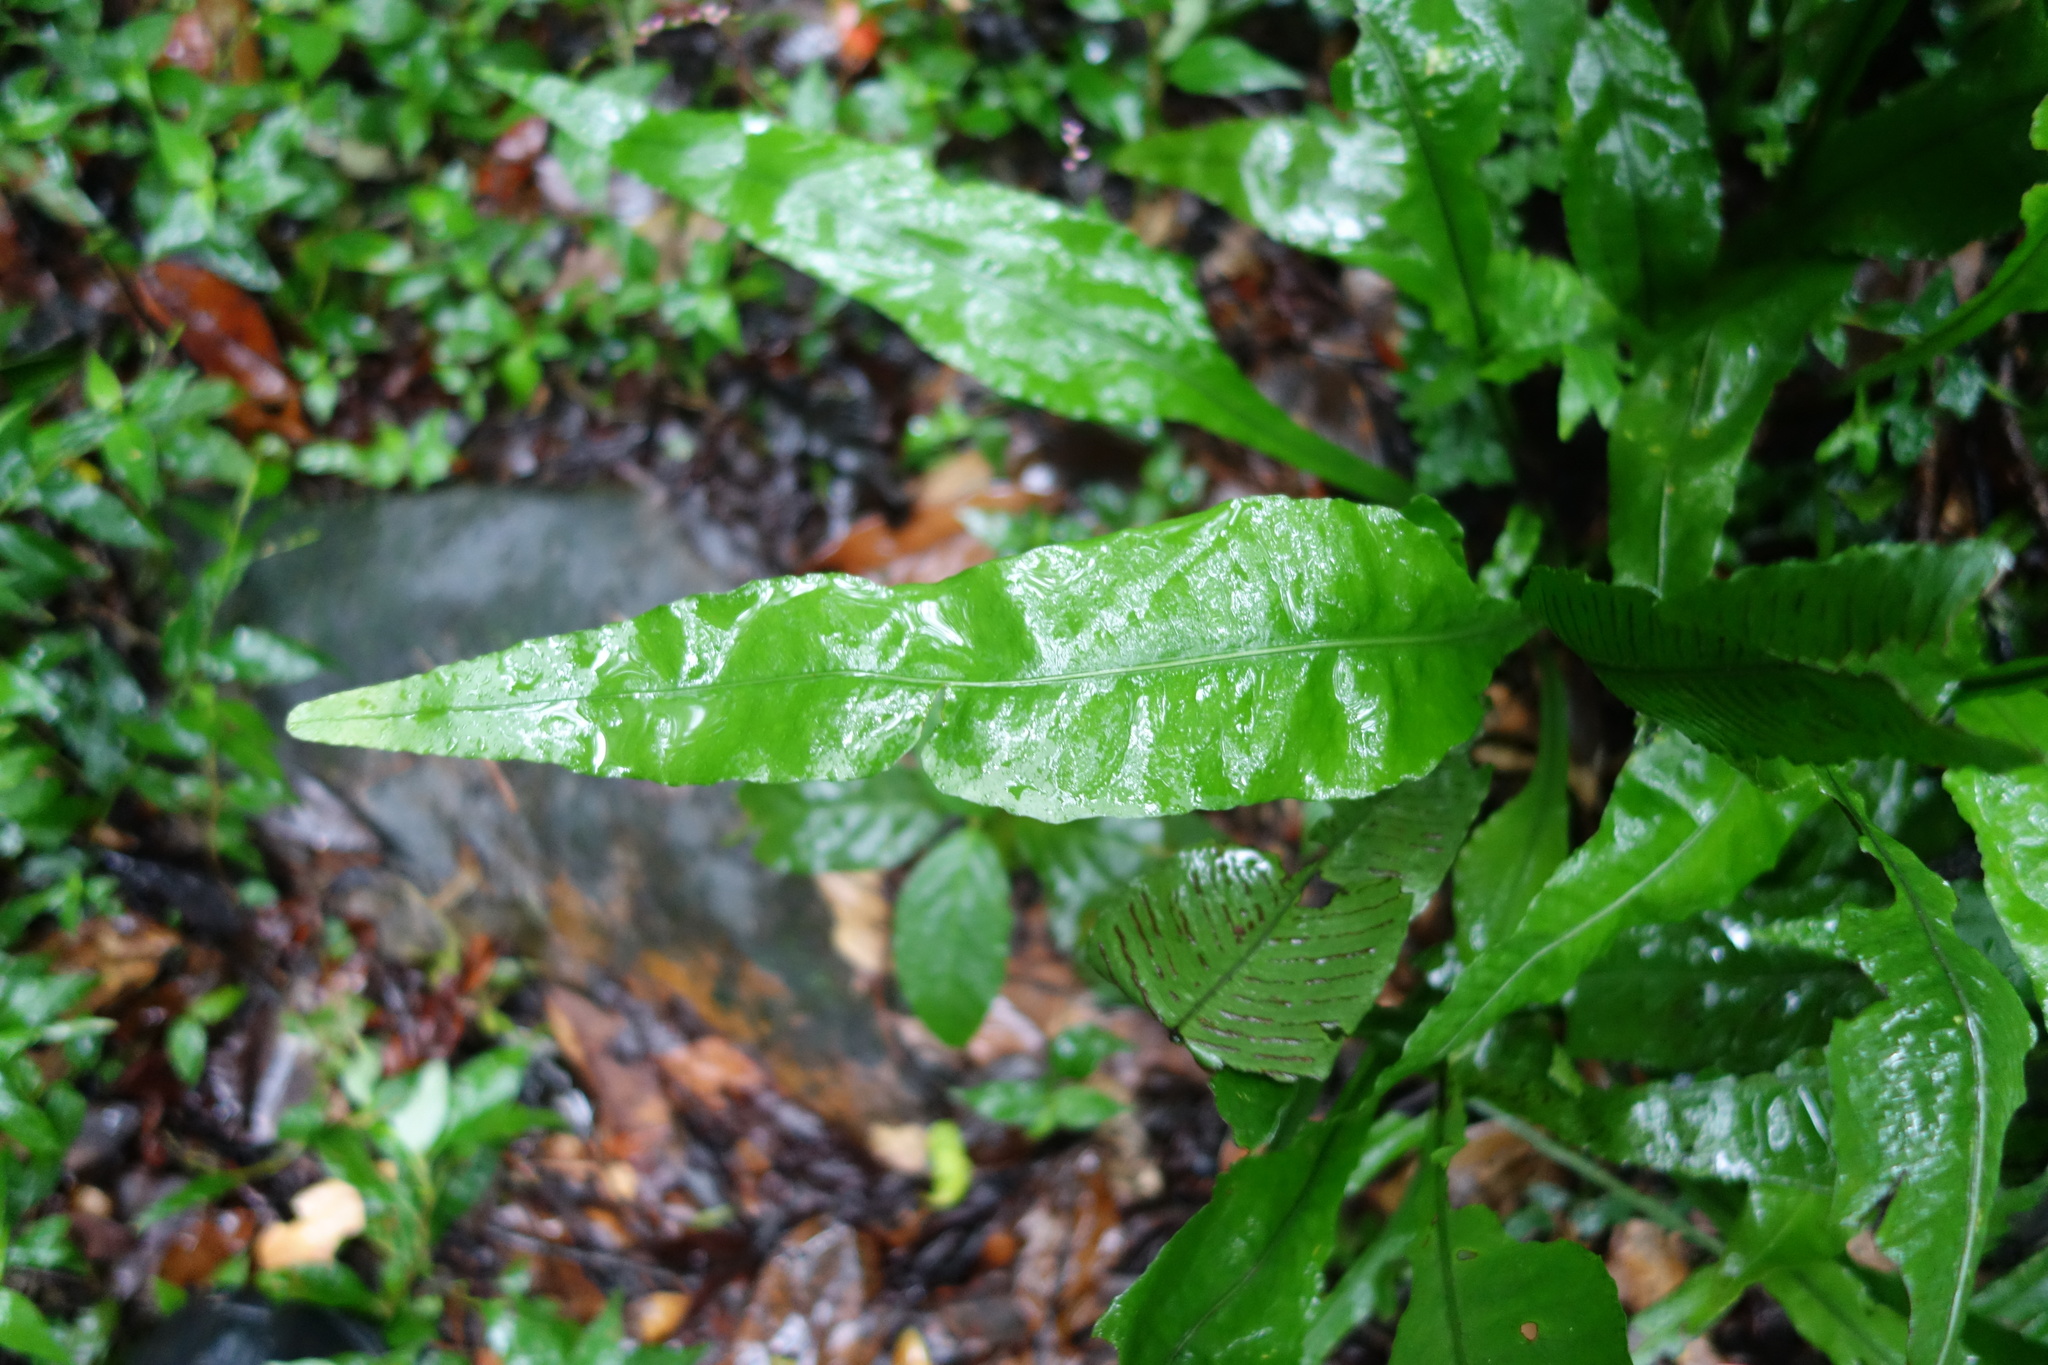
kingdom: Plantae
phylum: Tracheophyta
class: Polypodiopsida
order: Polypodiales
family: Polypodiaceae
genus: Leptochilus
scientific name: Leptochilus wrightii
